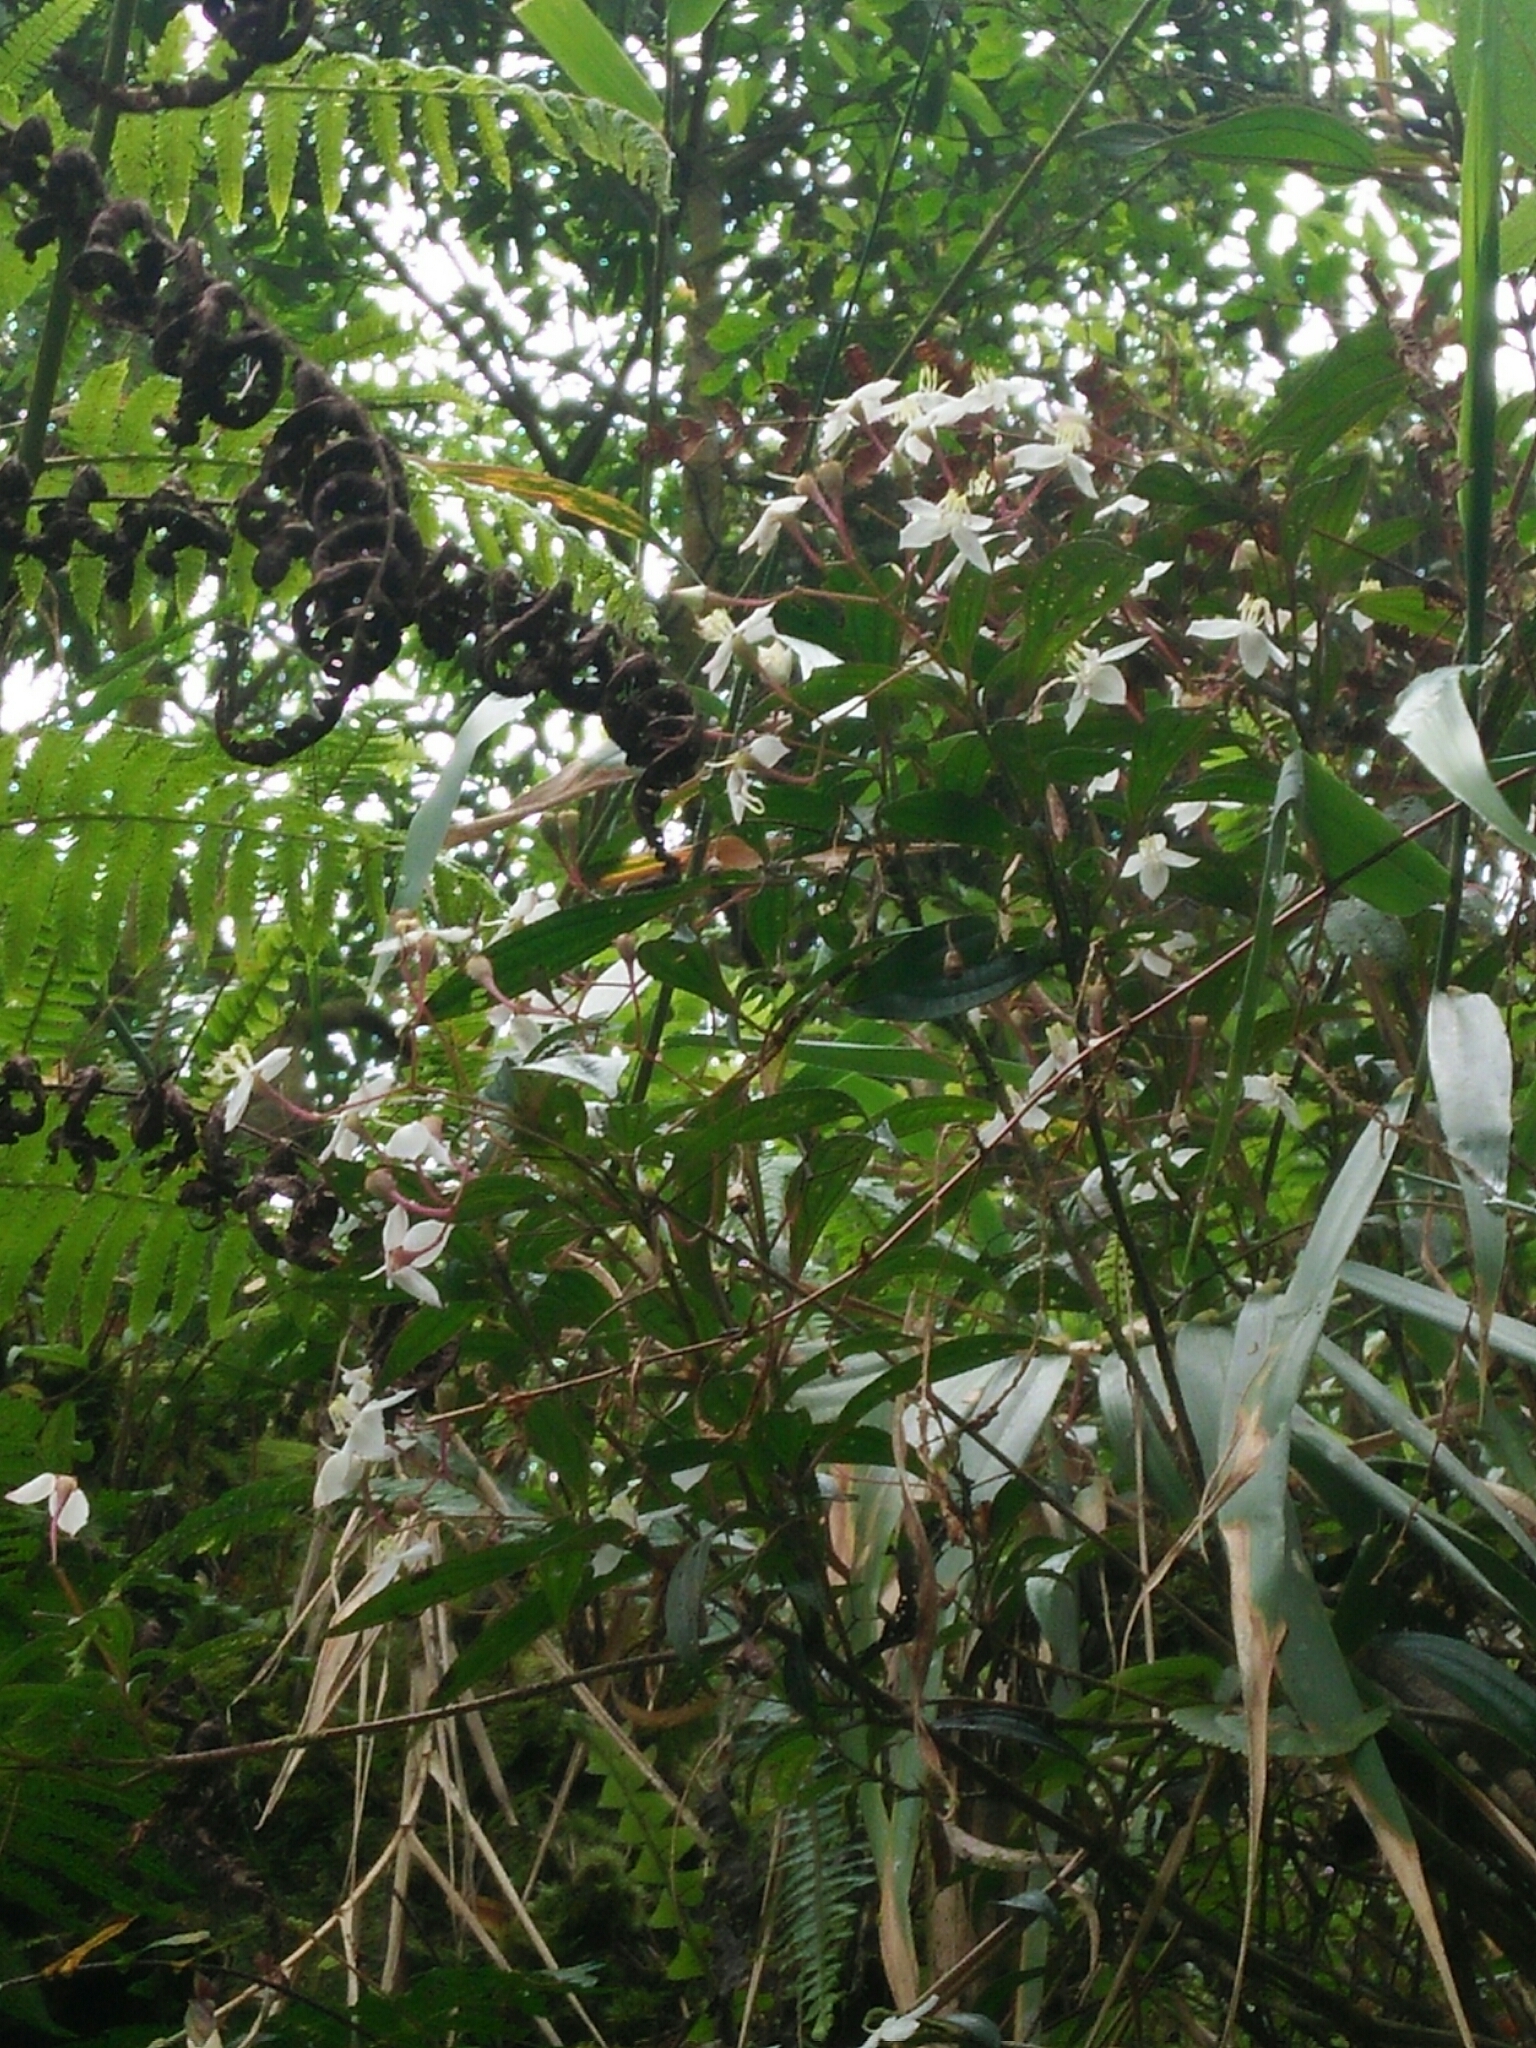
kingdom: Plantae
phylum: Tracheophyta
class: Magnoliopsida
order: Myrtales
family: Melastomataceae
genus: Bredia
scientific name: Bredia oldhamii
